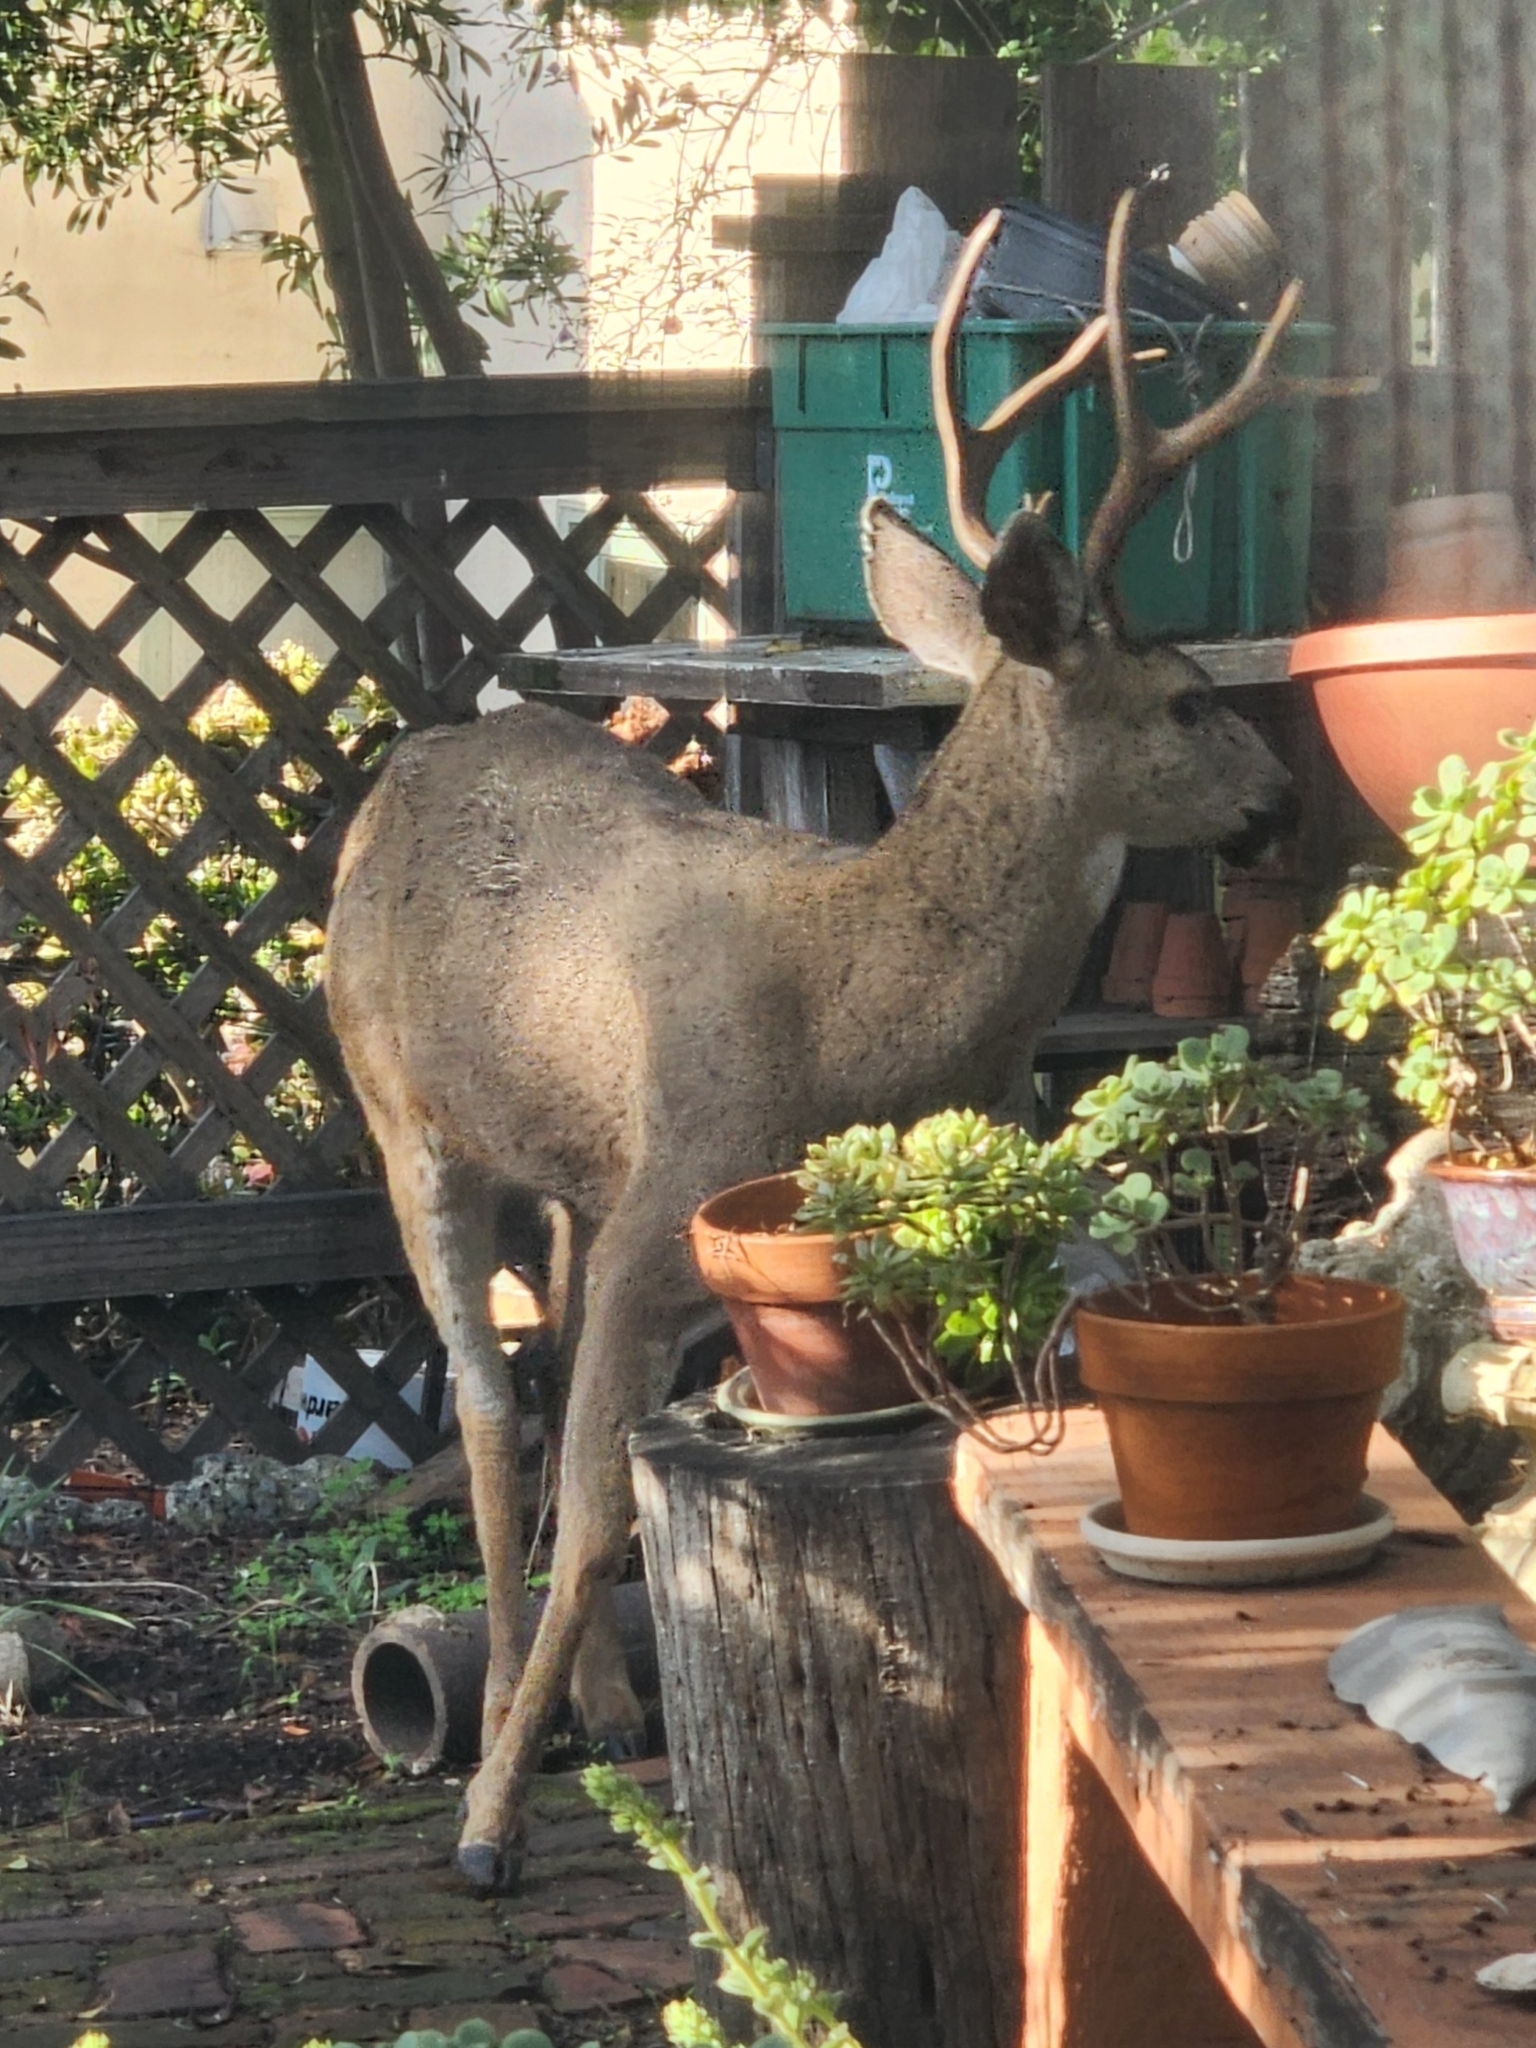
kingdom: Animalia
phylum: Chordata
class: Mammalia
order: Artiodactyla
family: Cervidae
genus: Odocoileus
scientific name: Odocoileus hemionus
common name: Mule deer
